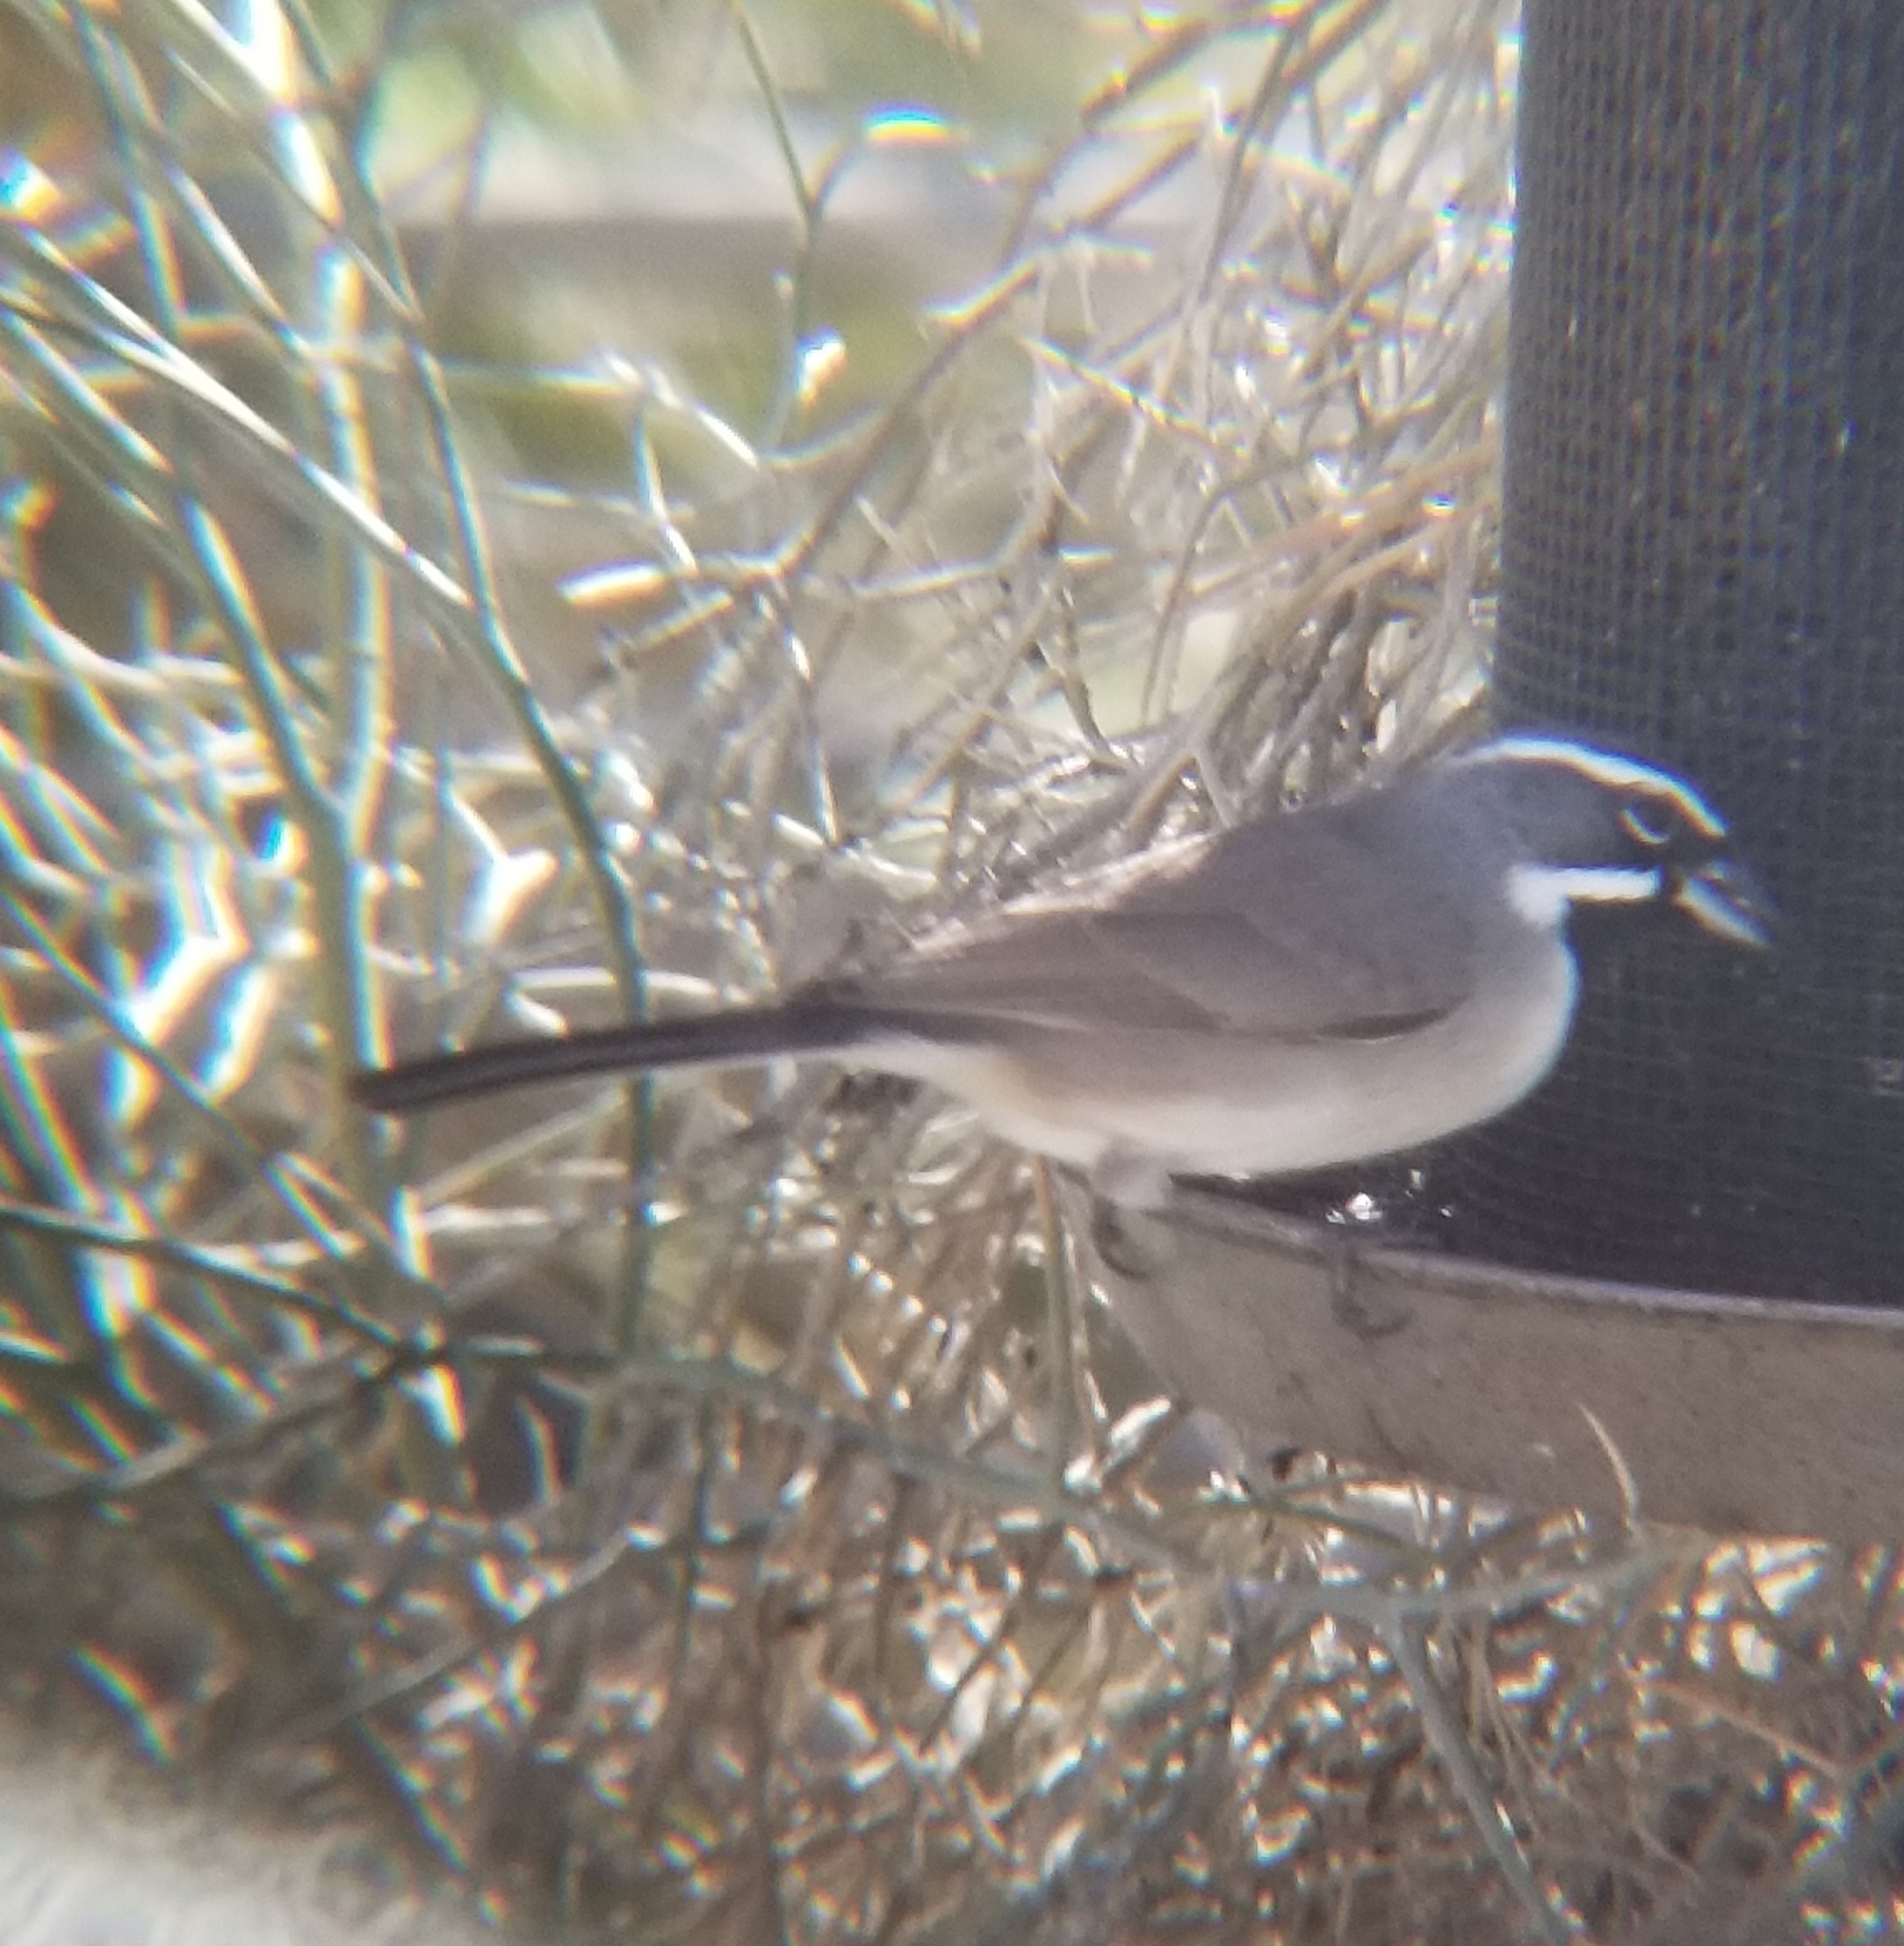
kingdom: Animalia
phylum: Chordata
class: Aves
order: Passeriformes
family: Passerellidae
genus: Amphispiza
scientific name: Amphispiza bilineata
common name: Black-throated sparrow
